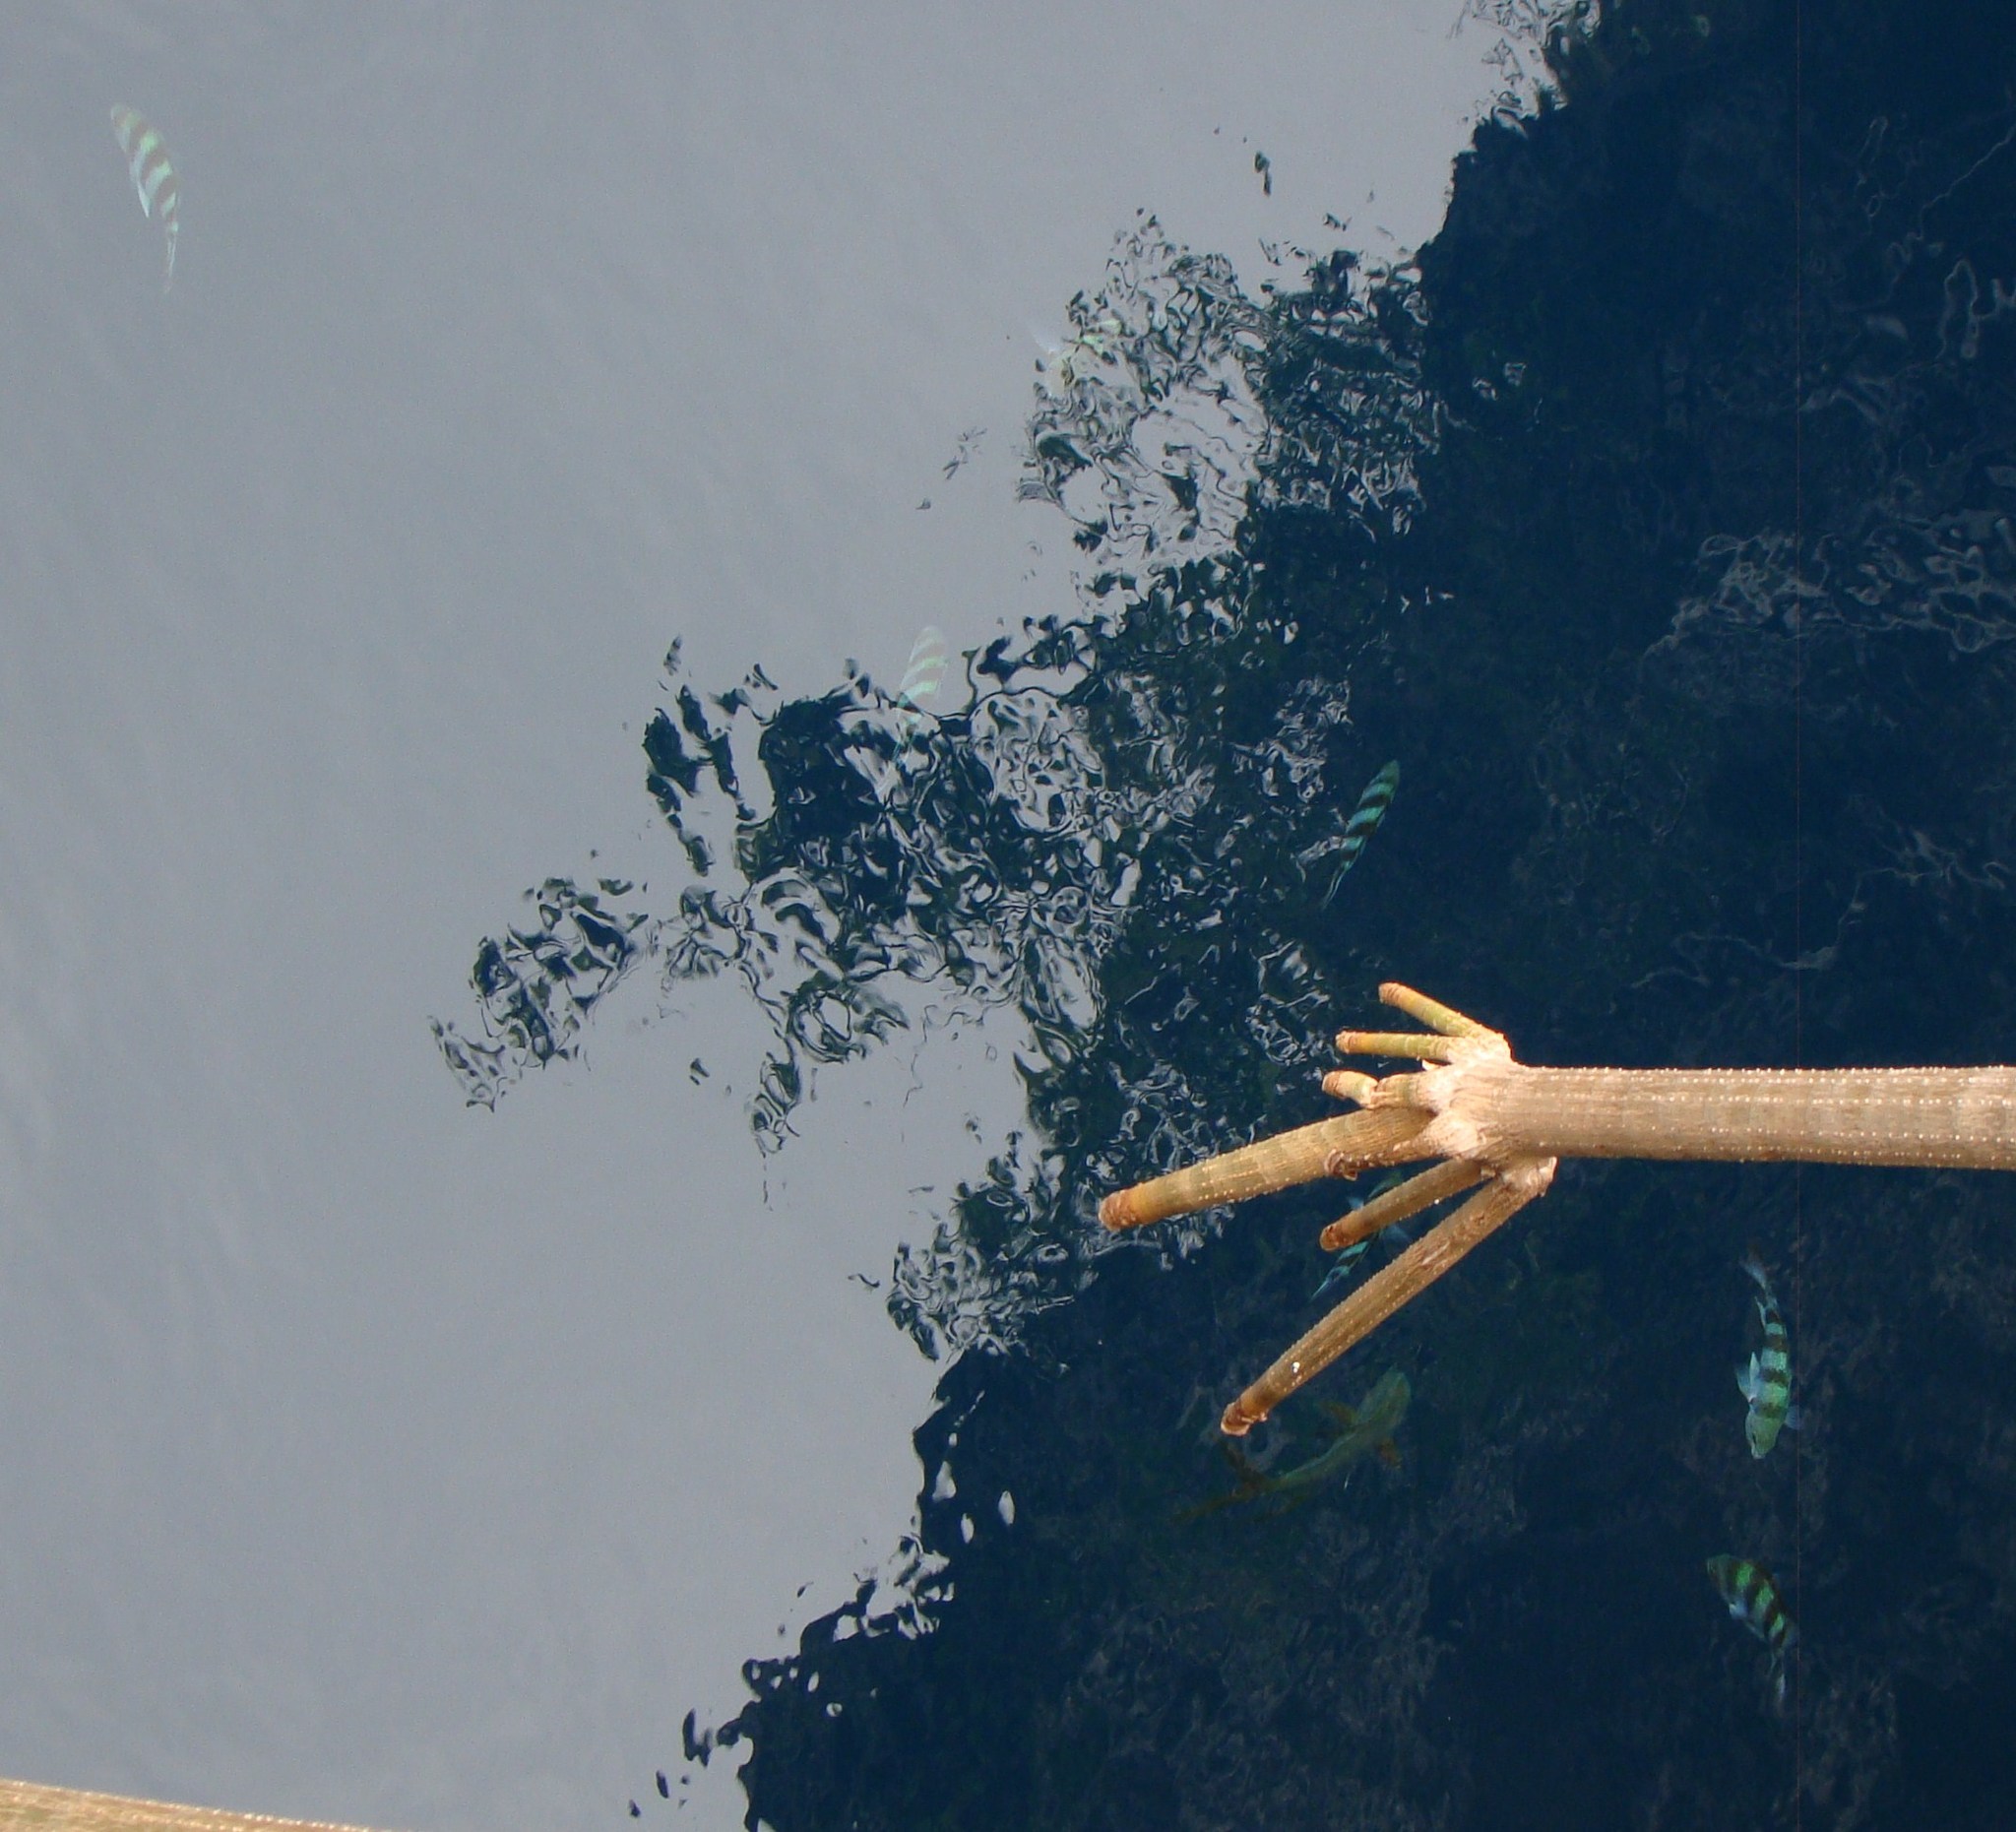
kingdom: Animalia
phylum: Chordata
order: Perciformes
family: Pomacentridae
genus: Abudefduf
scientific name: Abudefduf vaigiensis
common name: Indo-pacific sergeant
